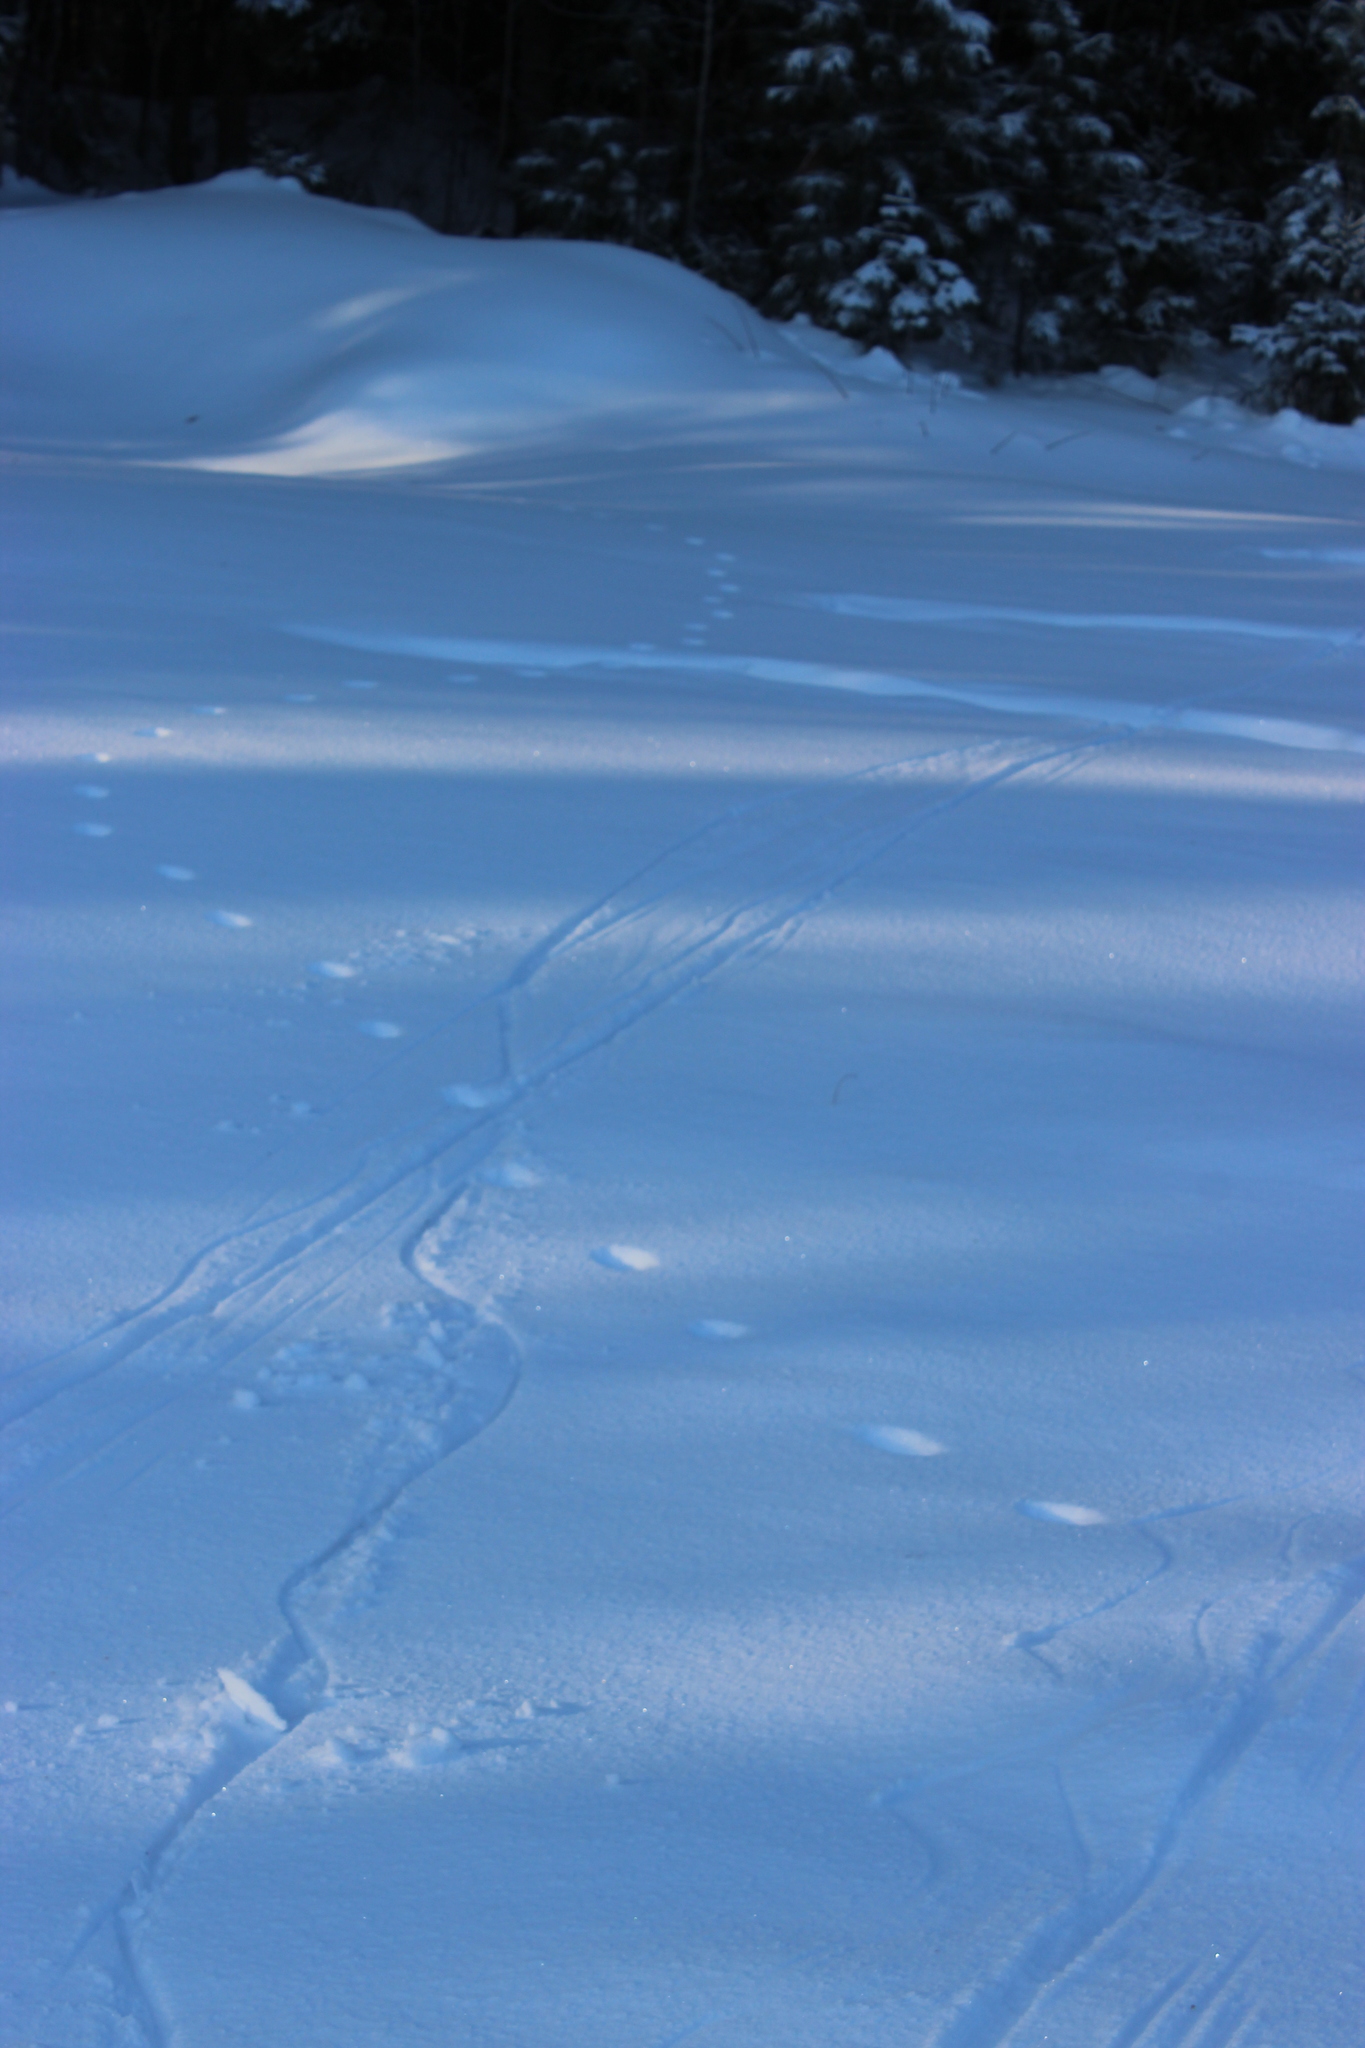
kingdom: Animalia
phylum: Chordata
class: Mammalia
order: Carnivora
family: Canidae
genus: Vulpes
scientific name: Vulpes vulpes
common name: Red fox
